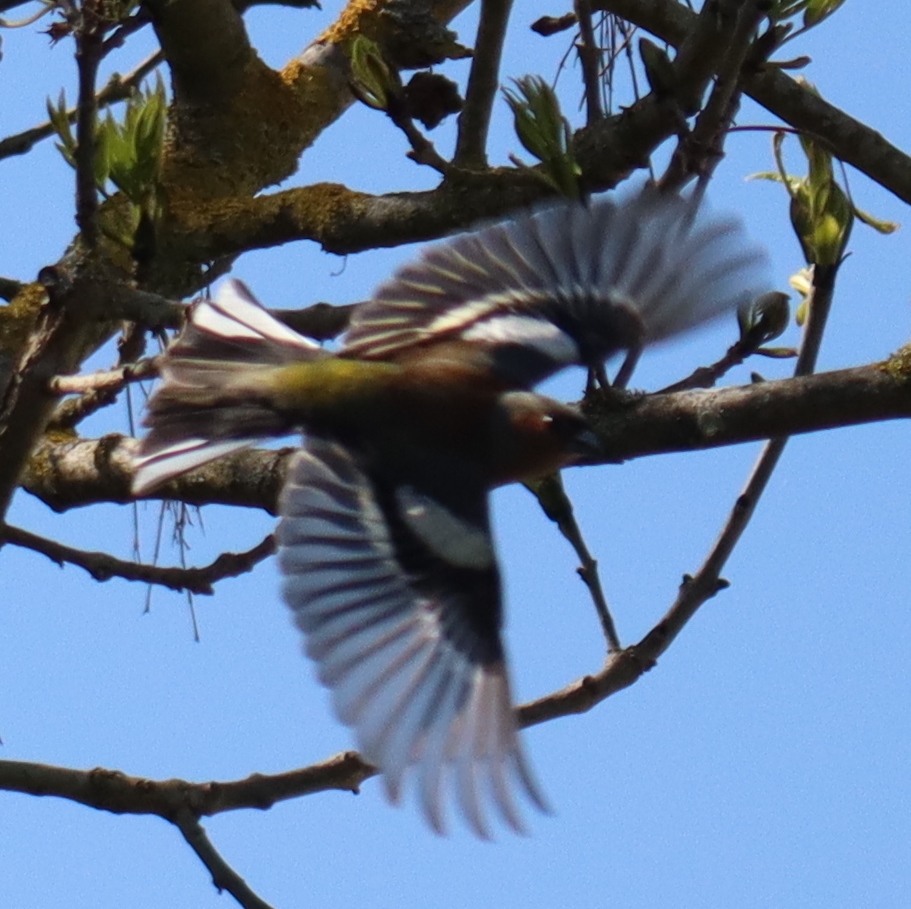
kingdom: Animalia
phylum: Chordata
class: Aves
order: Passeriformes
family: Fringillidae
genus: Fringilla
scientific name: Fringilla coelebs
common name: Common chaffinch
